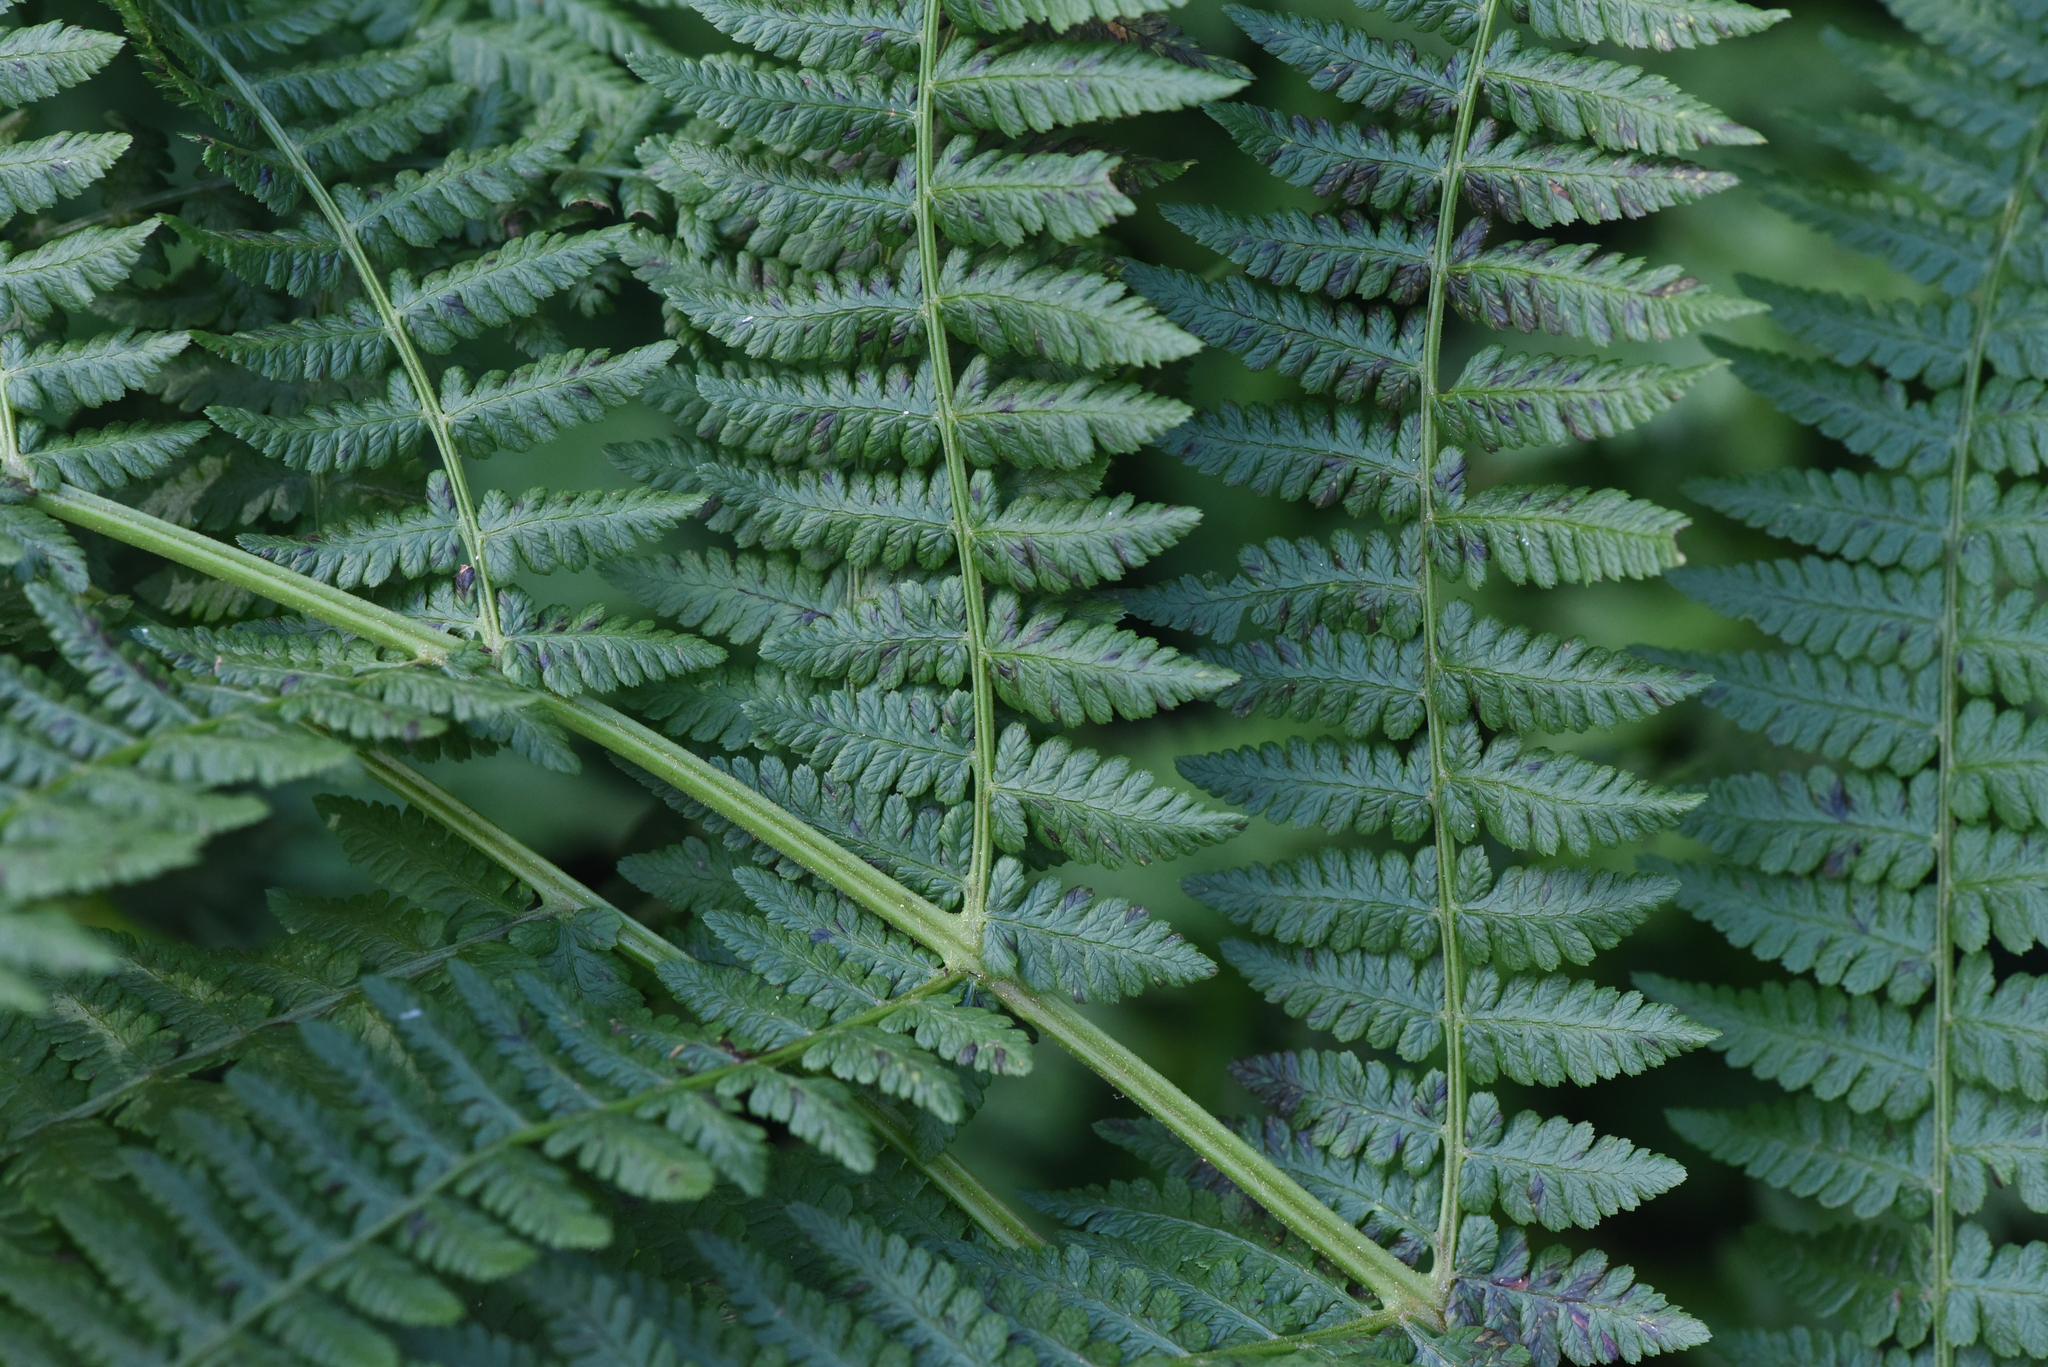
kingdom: Plantae
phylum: Tracheophyta
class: Polypodiopsida
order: Polypodiales
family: Athyriaceae
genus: Athyrium
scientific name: Athyrium filix-femina
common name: Lady fern
